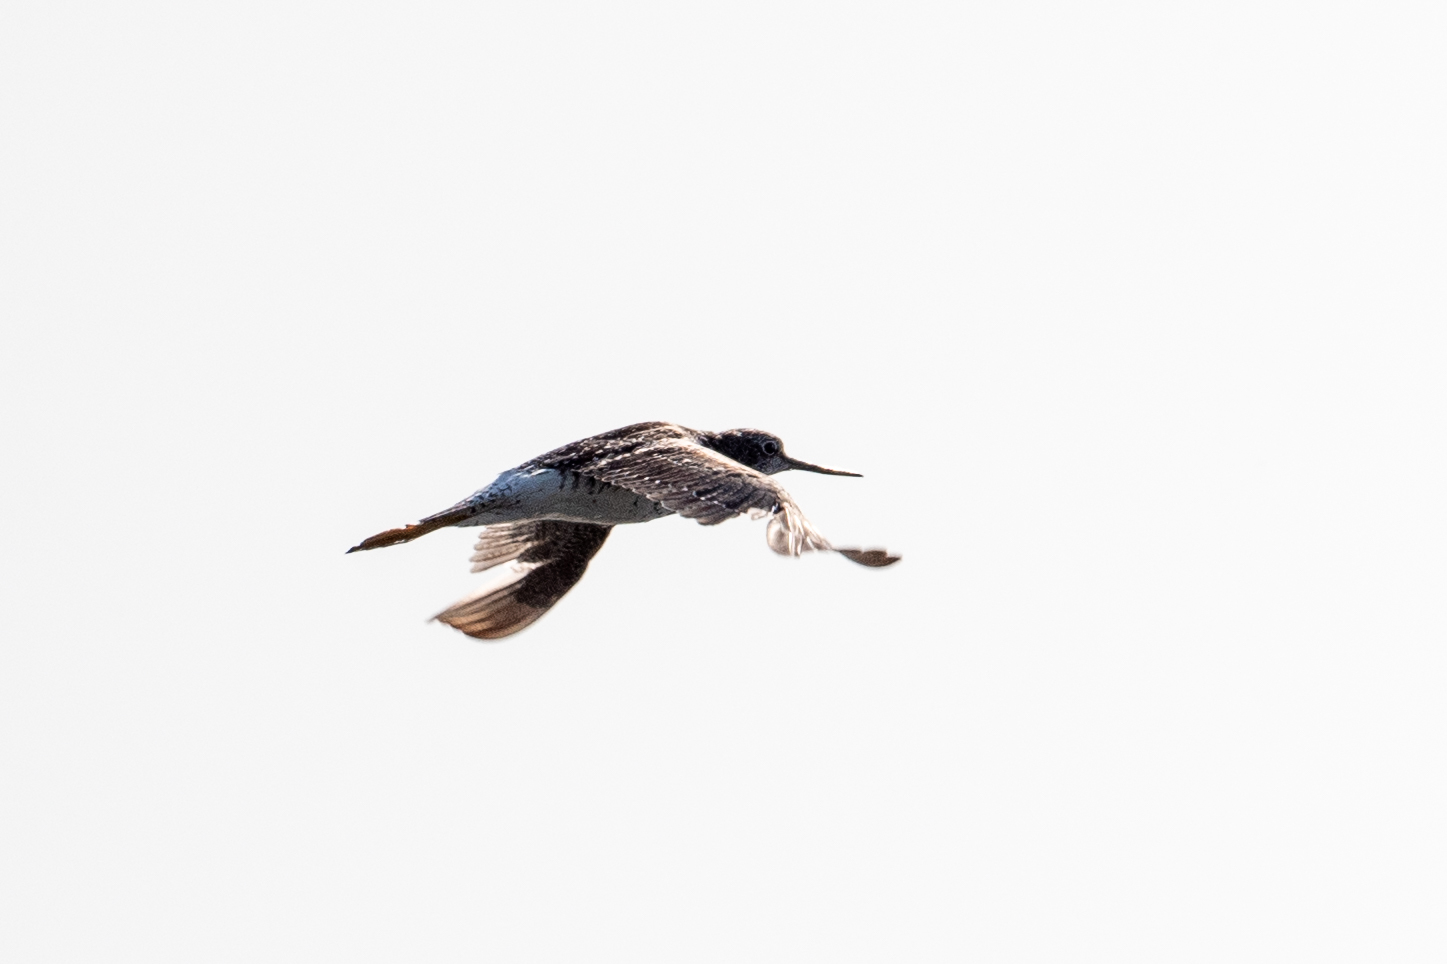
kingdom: Animalia
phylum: Chordata
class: Aves
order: Charadriiformes
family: Scolopacidae
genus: Tringa
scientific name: Tringa melanoleuca
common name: Greater yellowlegs
